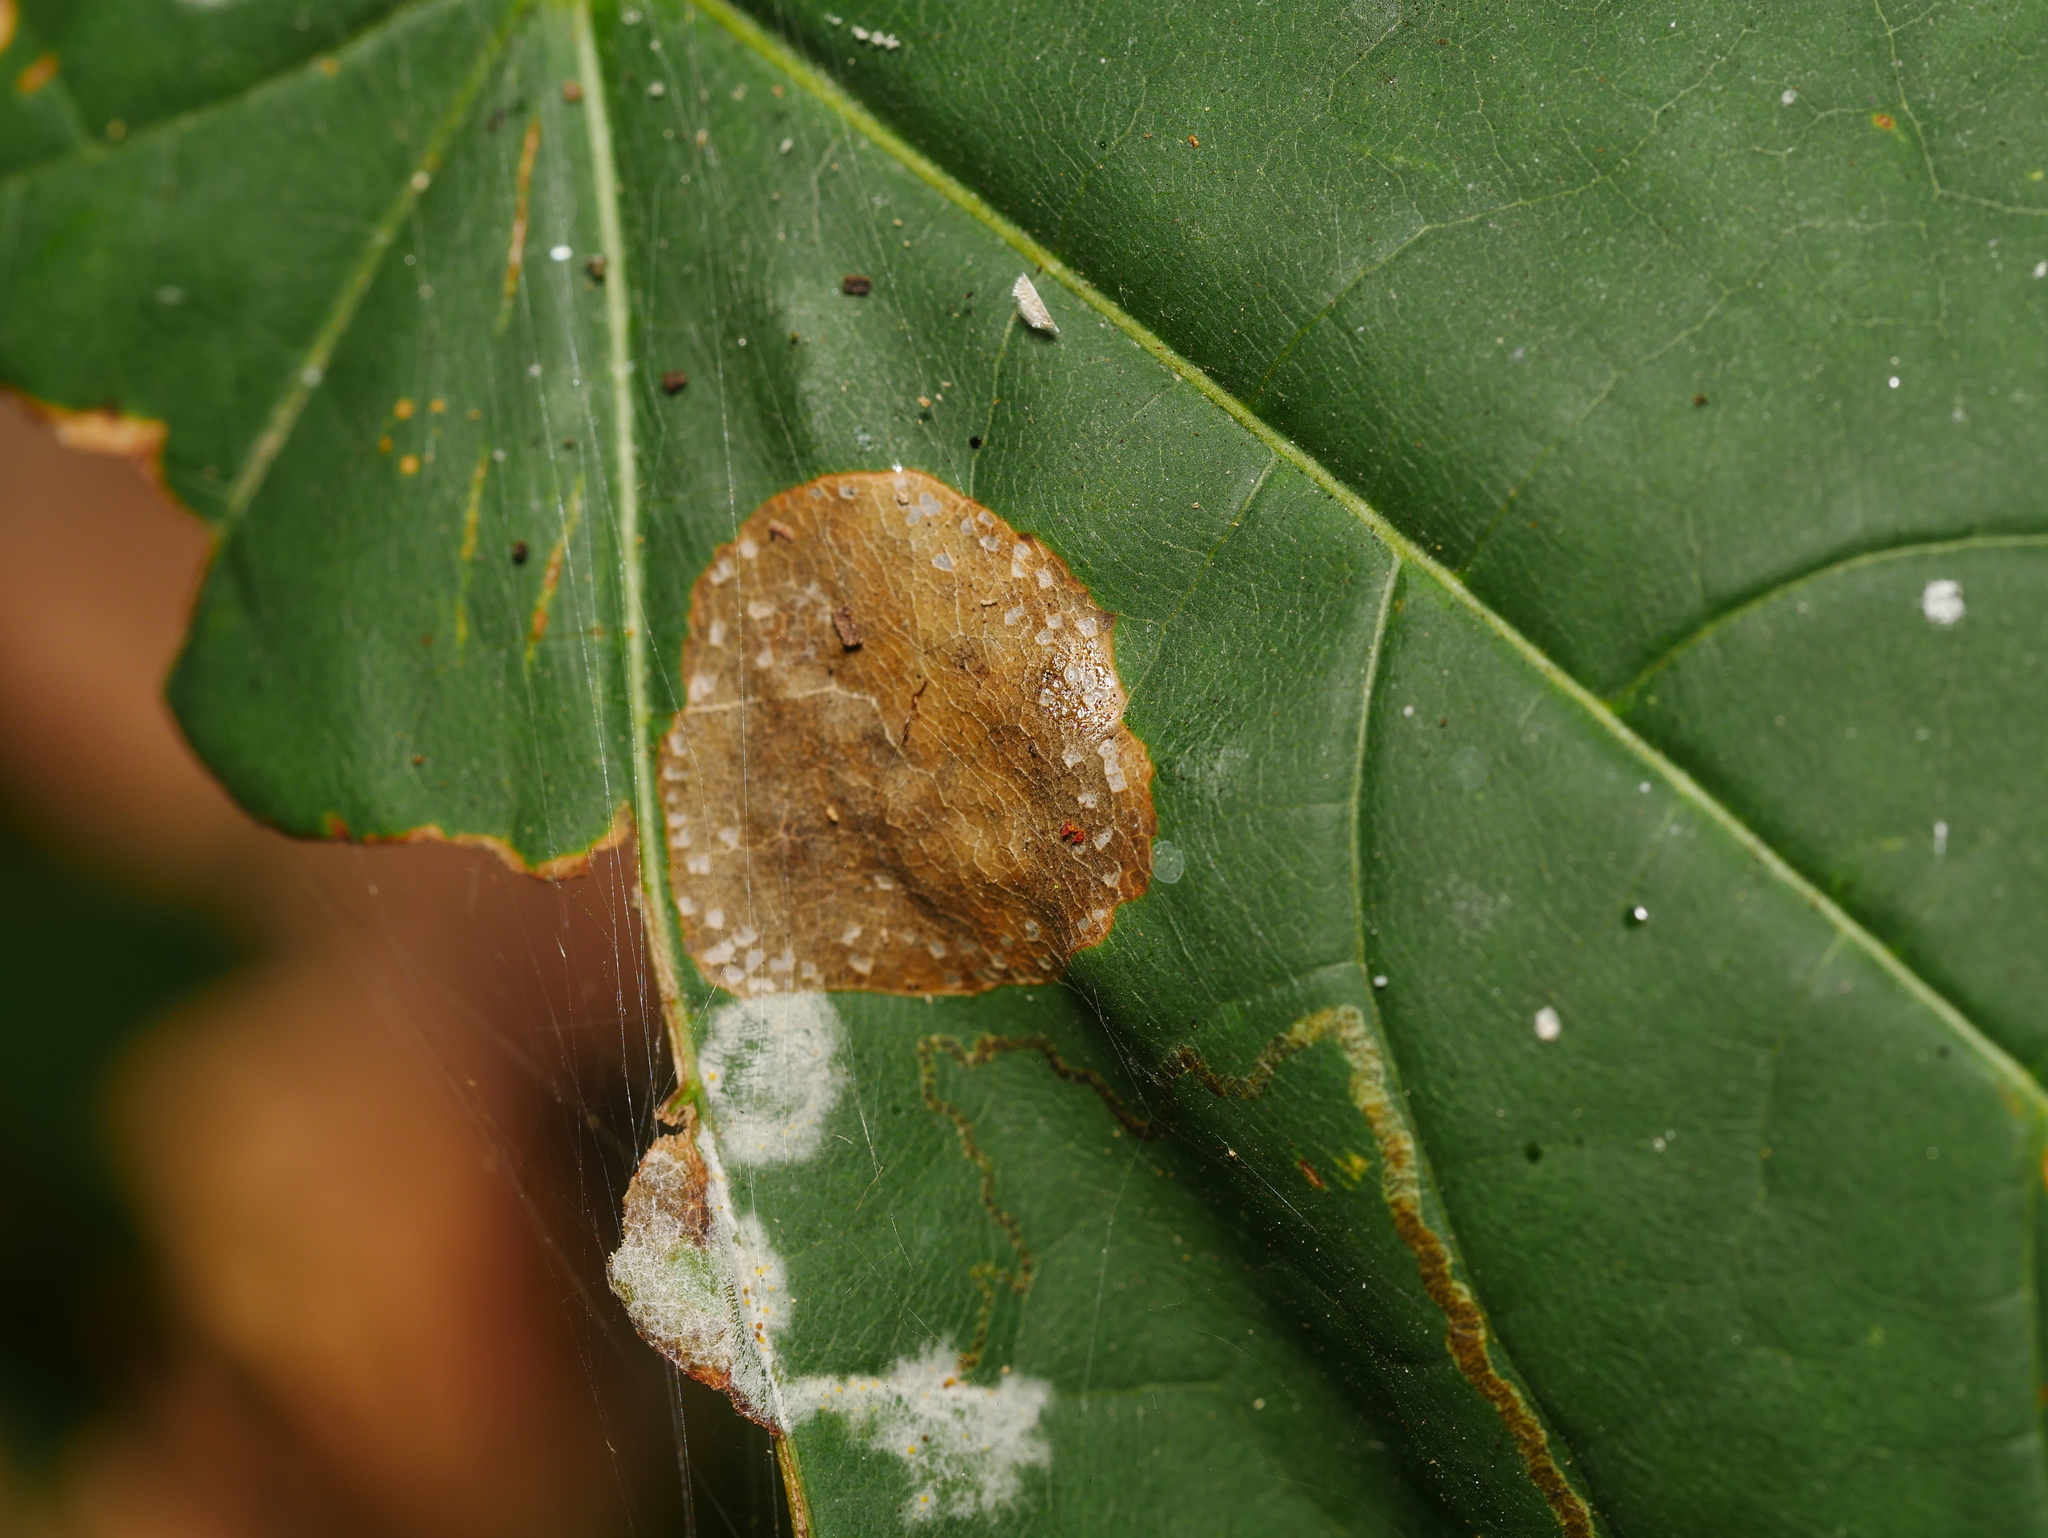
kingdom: Animalia
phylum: Arthropoda
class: Insecta
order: Lepidoptera
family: Gracillariidae
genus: Phyllonorycter
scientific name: Phyllonorycter joannisi
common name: White-bodied midget
